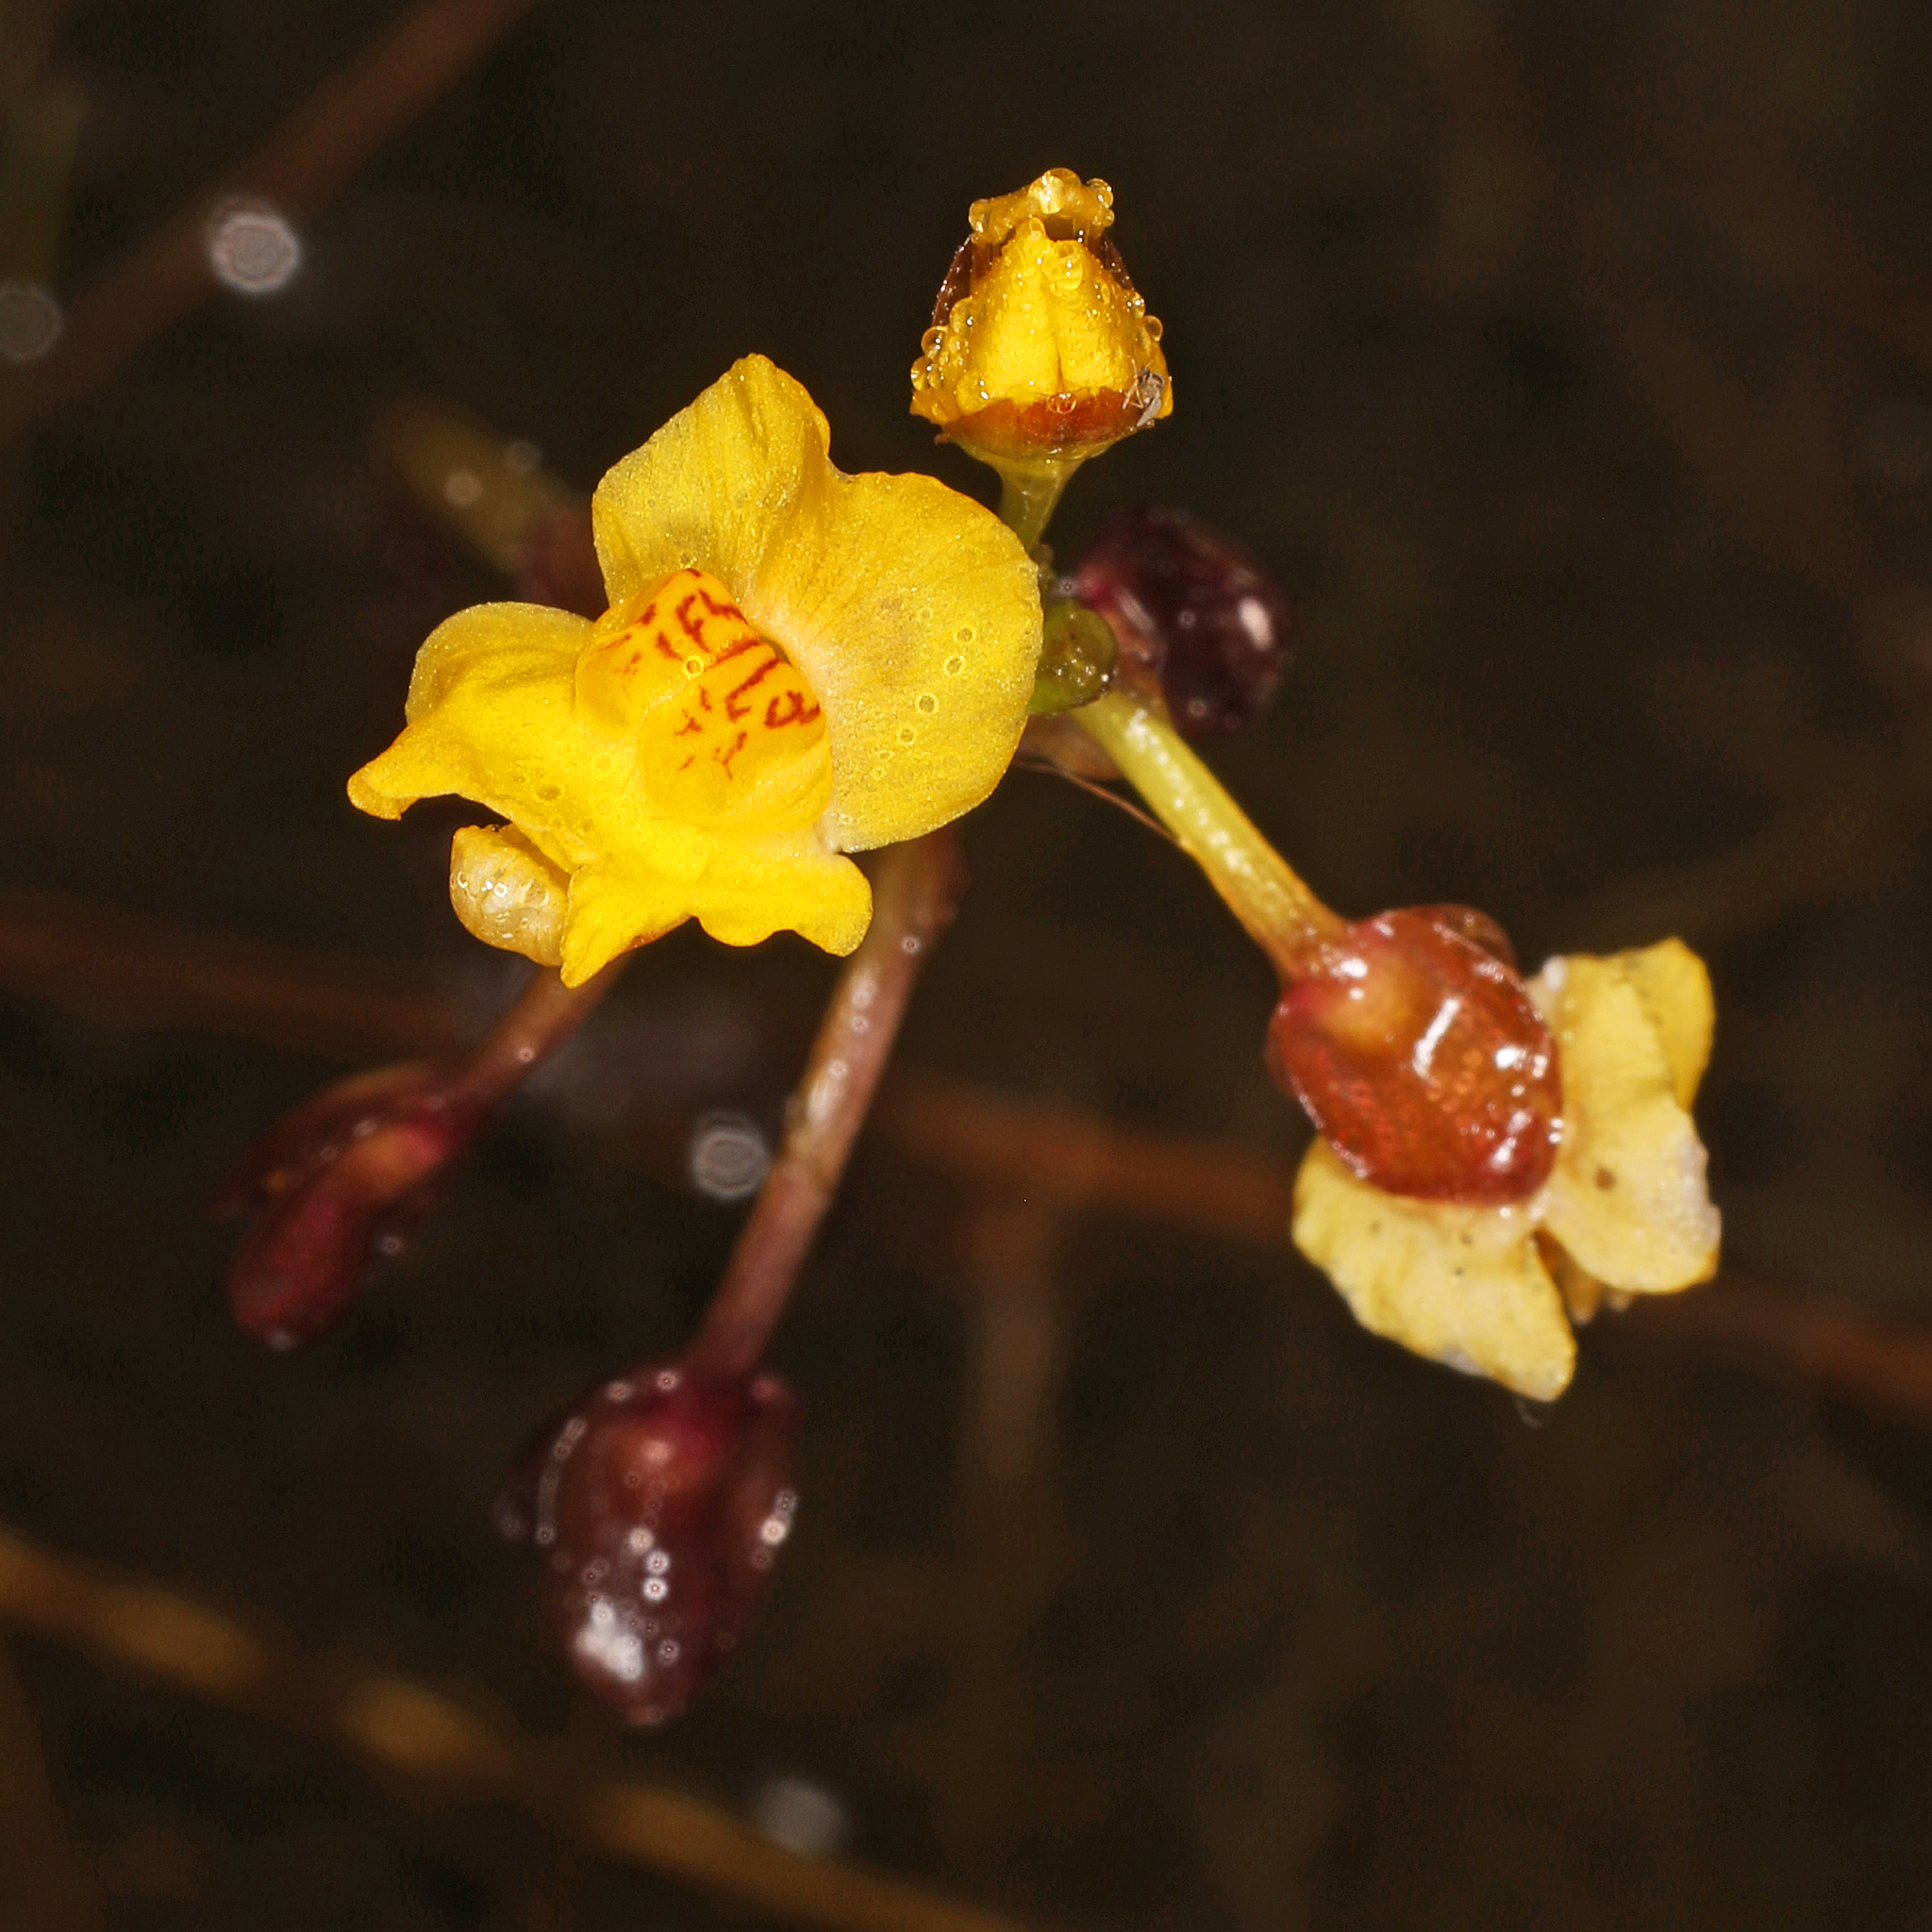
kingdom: Plantae
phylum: Tracheophyta
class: Magnoliopsida
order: Lamiales
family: Lentibulariaceae
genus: Utricularia
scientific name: Utricularia foliosa
